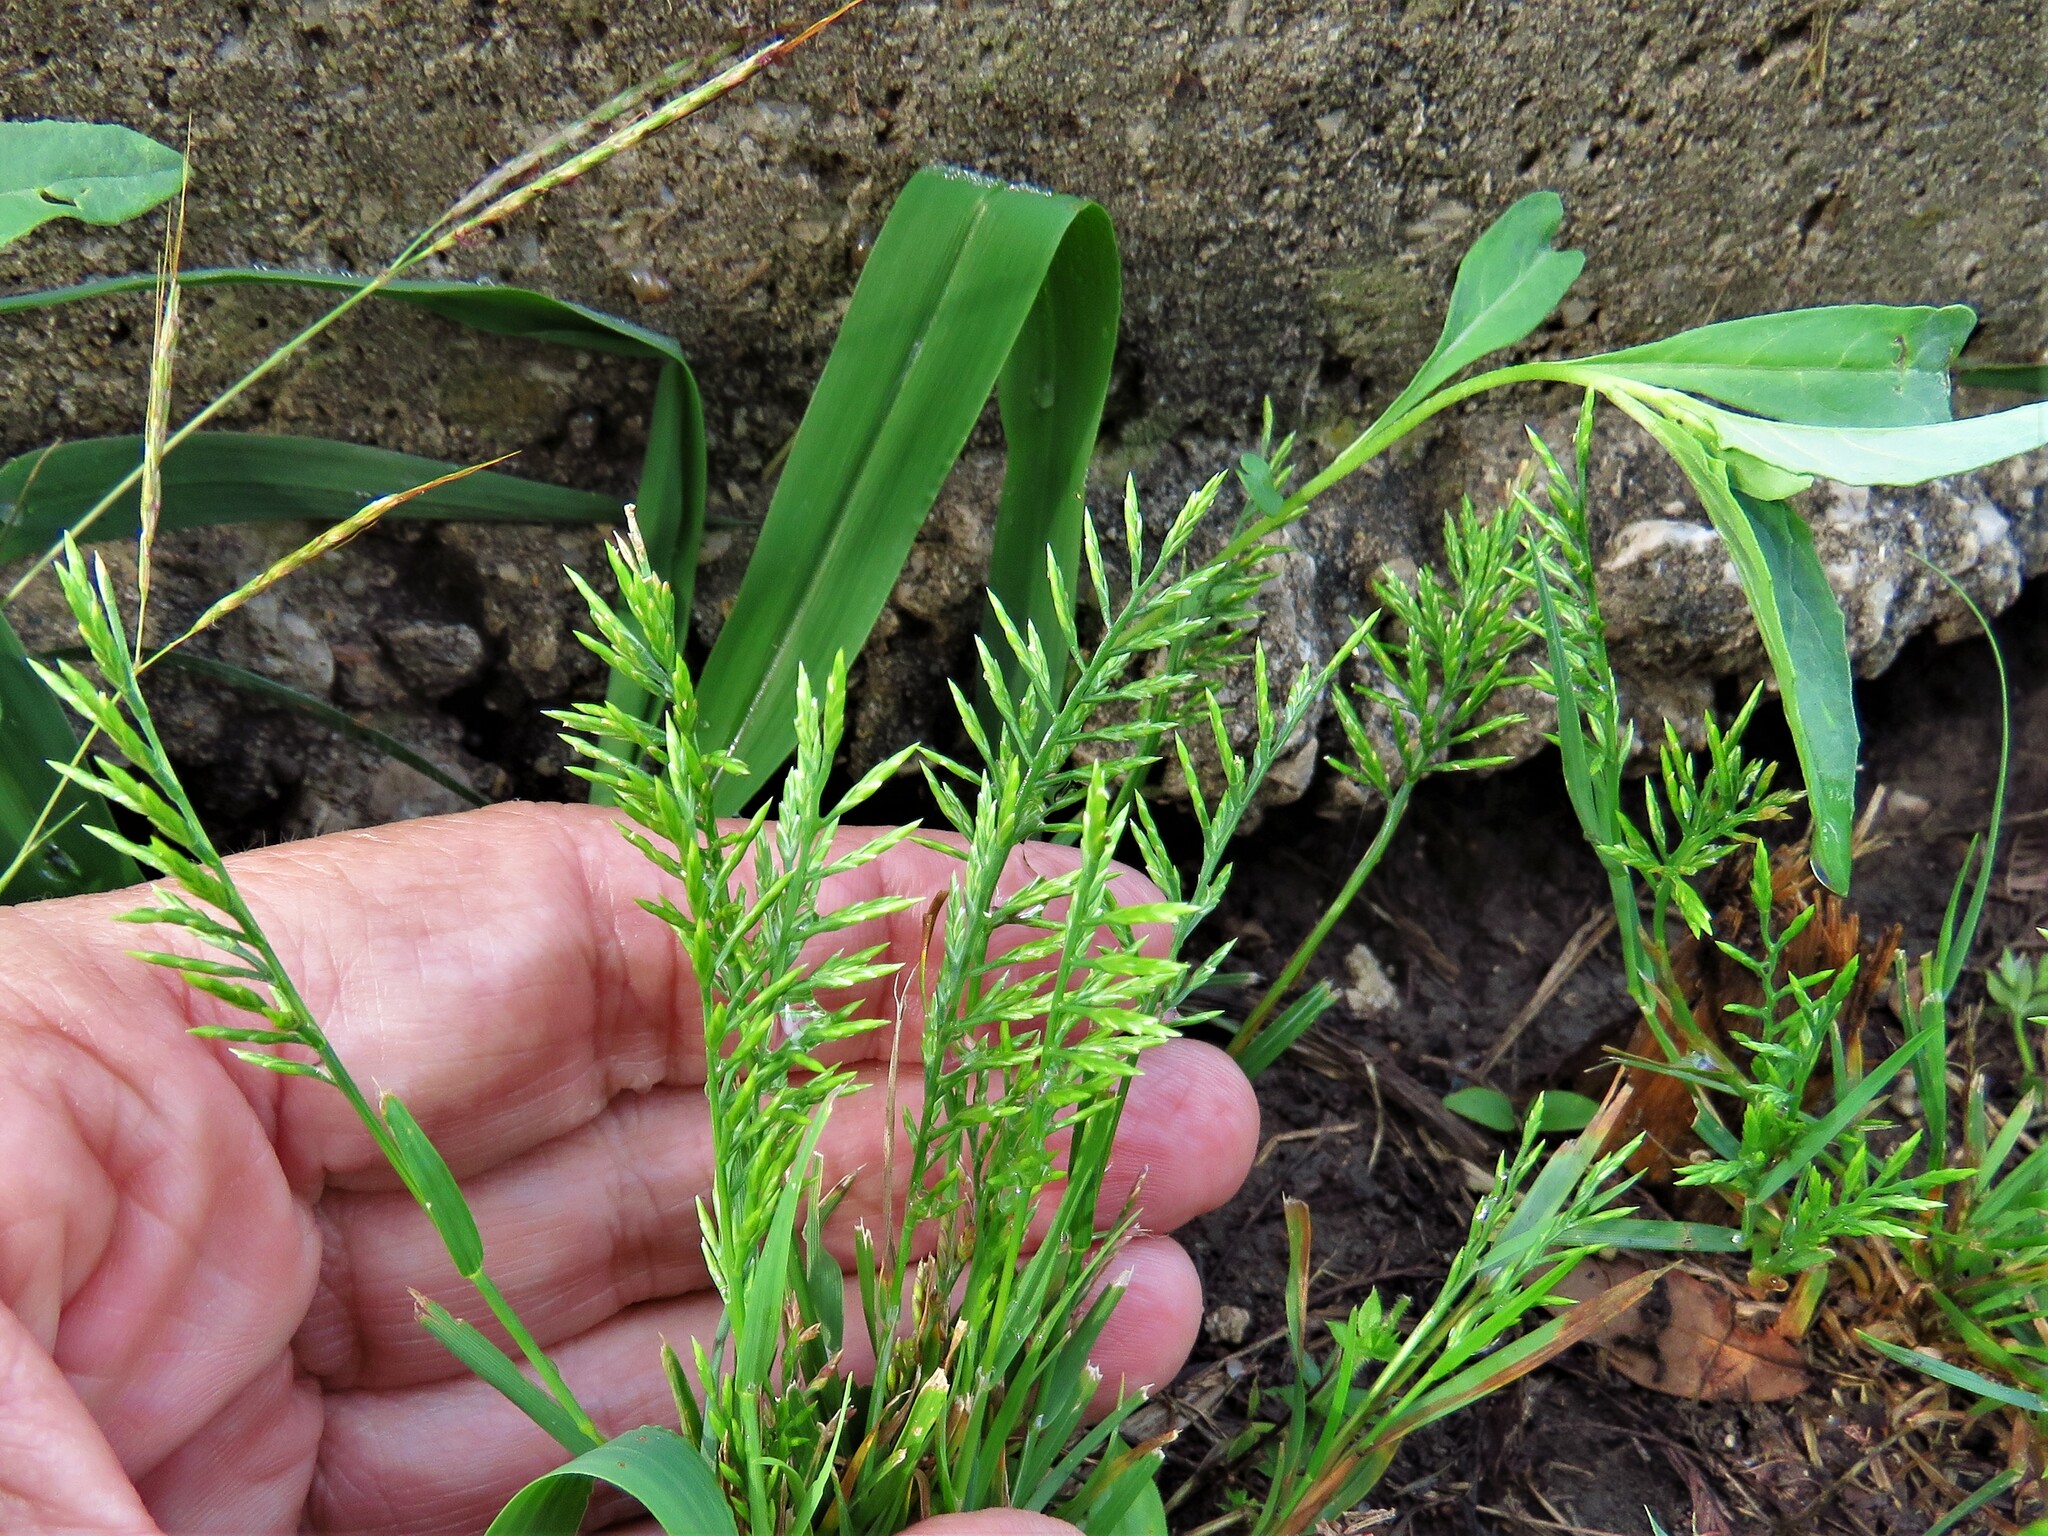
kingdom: Plantae
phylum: Tracheophyta
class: Liliopsida
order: Poales
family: Poaceae
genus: Catapodium
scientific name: Catapodium rigidum
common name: Fern-grass
